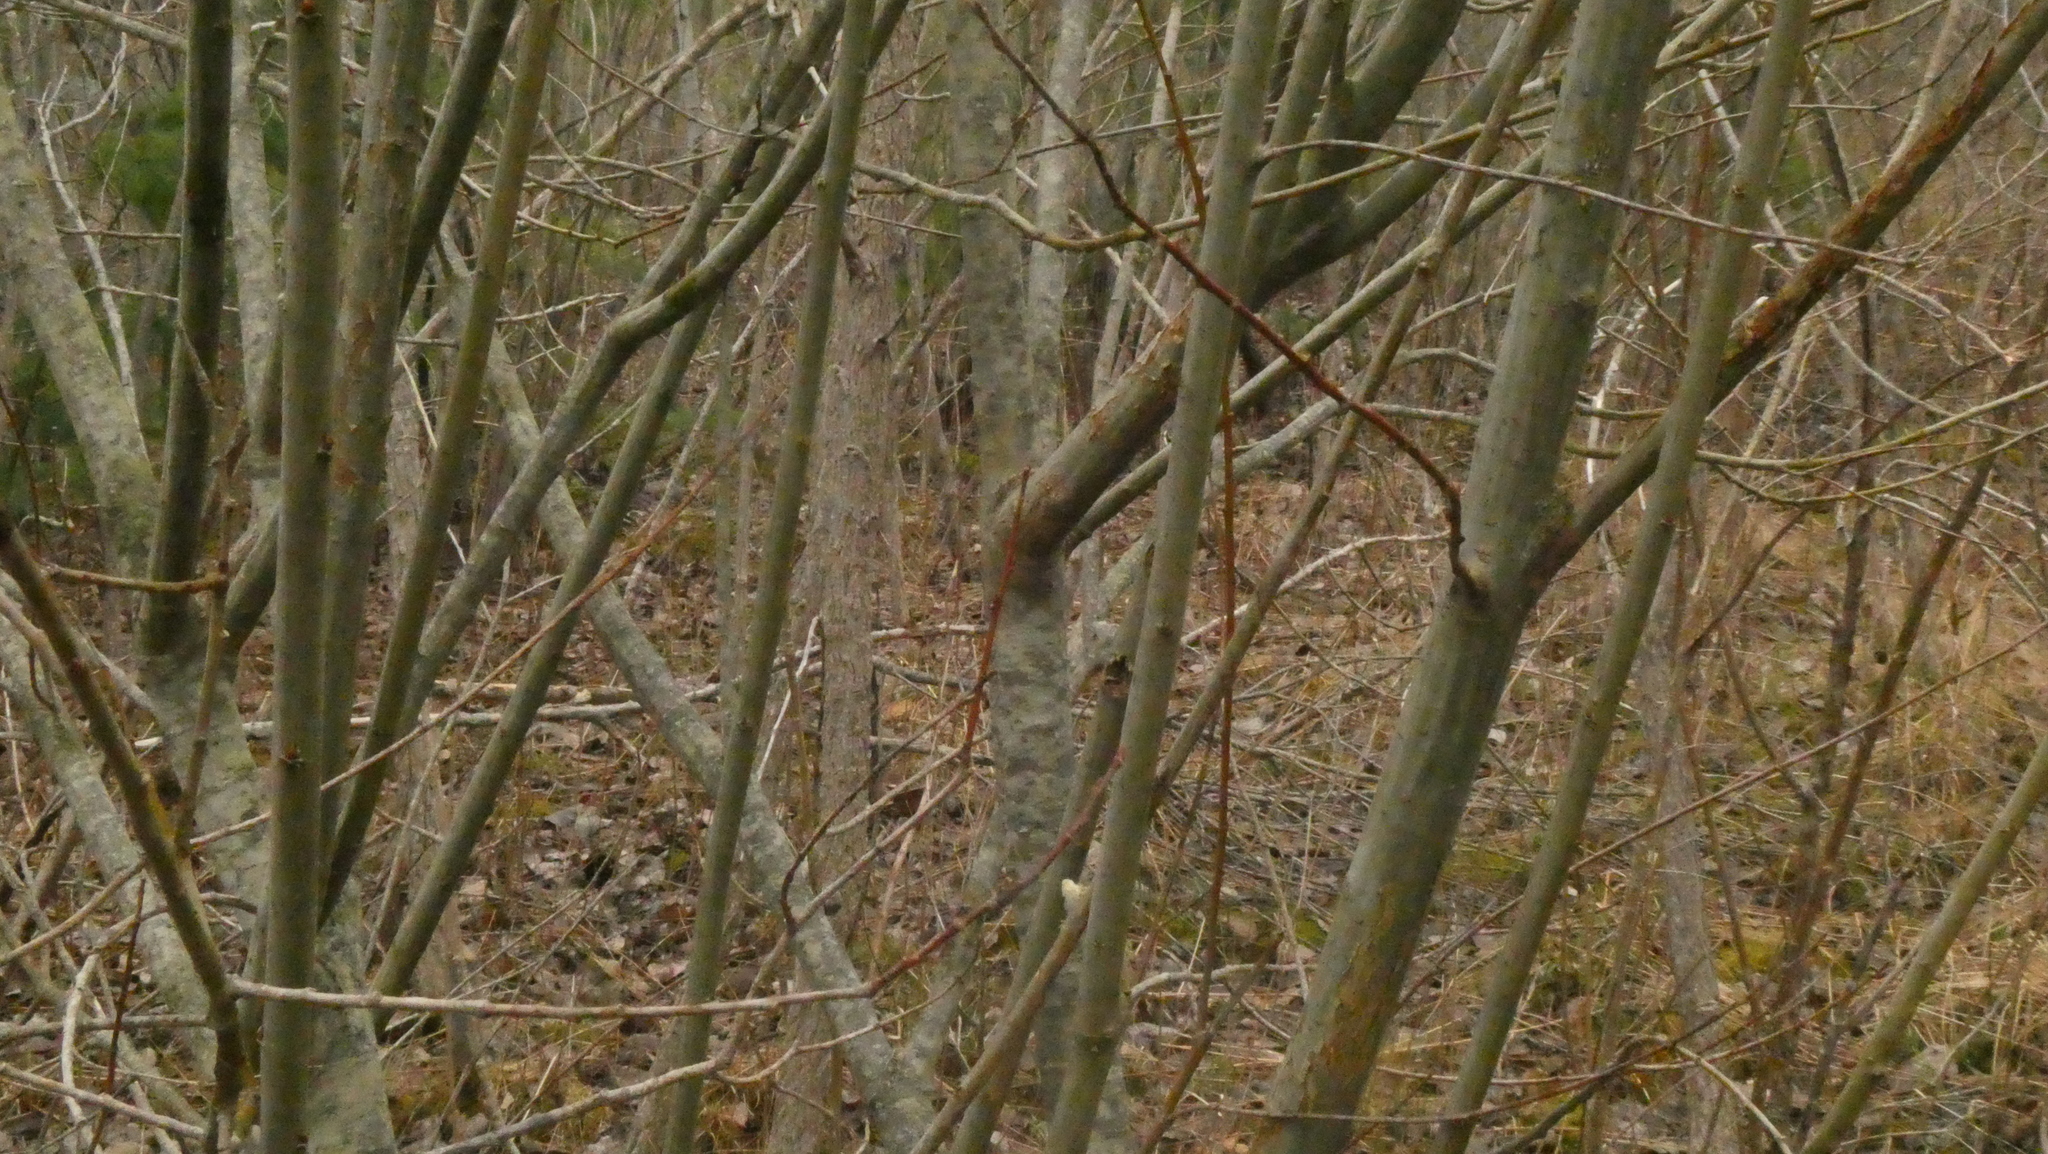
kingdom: Plantae
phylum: Tracheophyta
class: Magnoliopsida
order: Malpighiales
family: Salicaceae
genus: Salix
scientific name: Salix cinerea
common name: Common sallow
